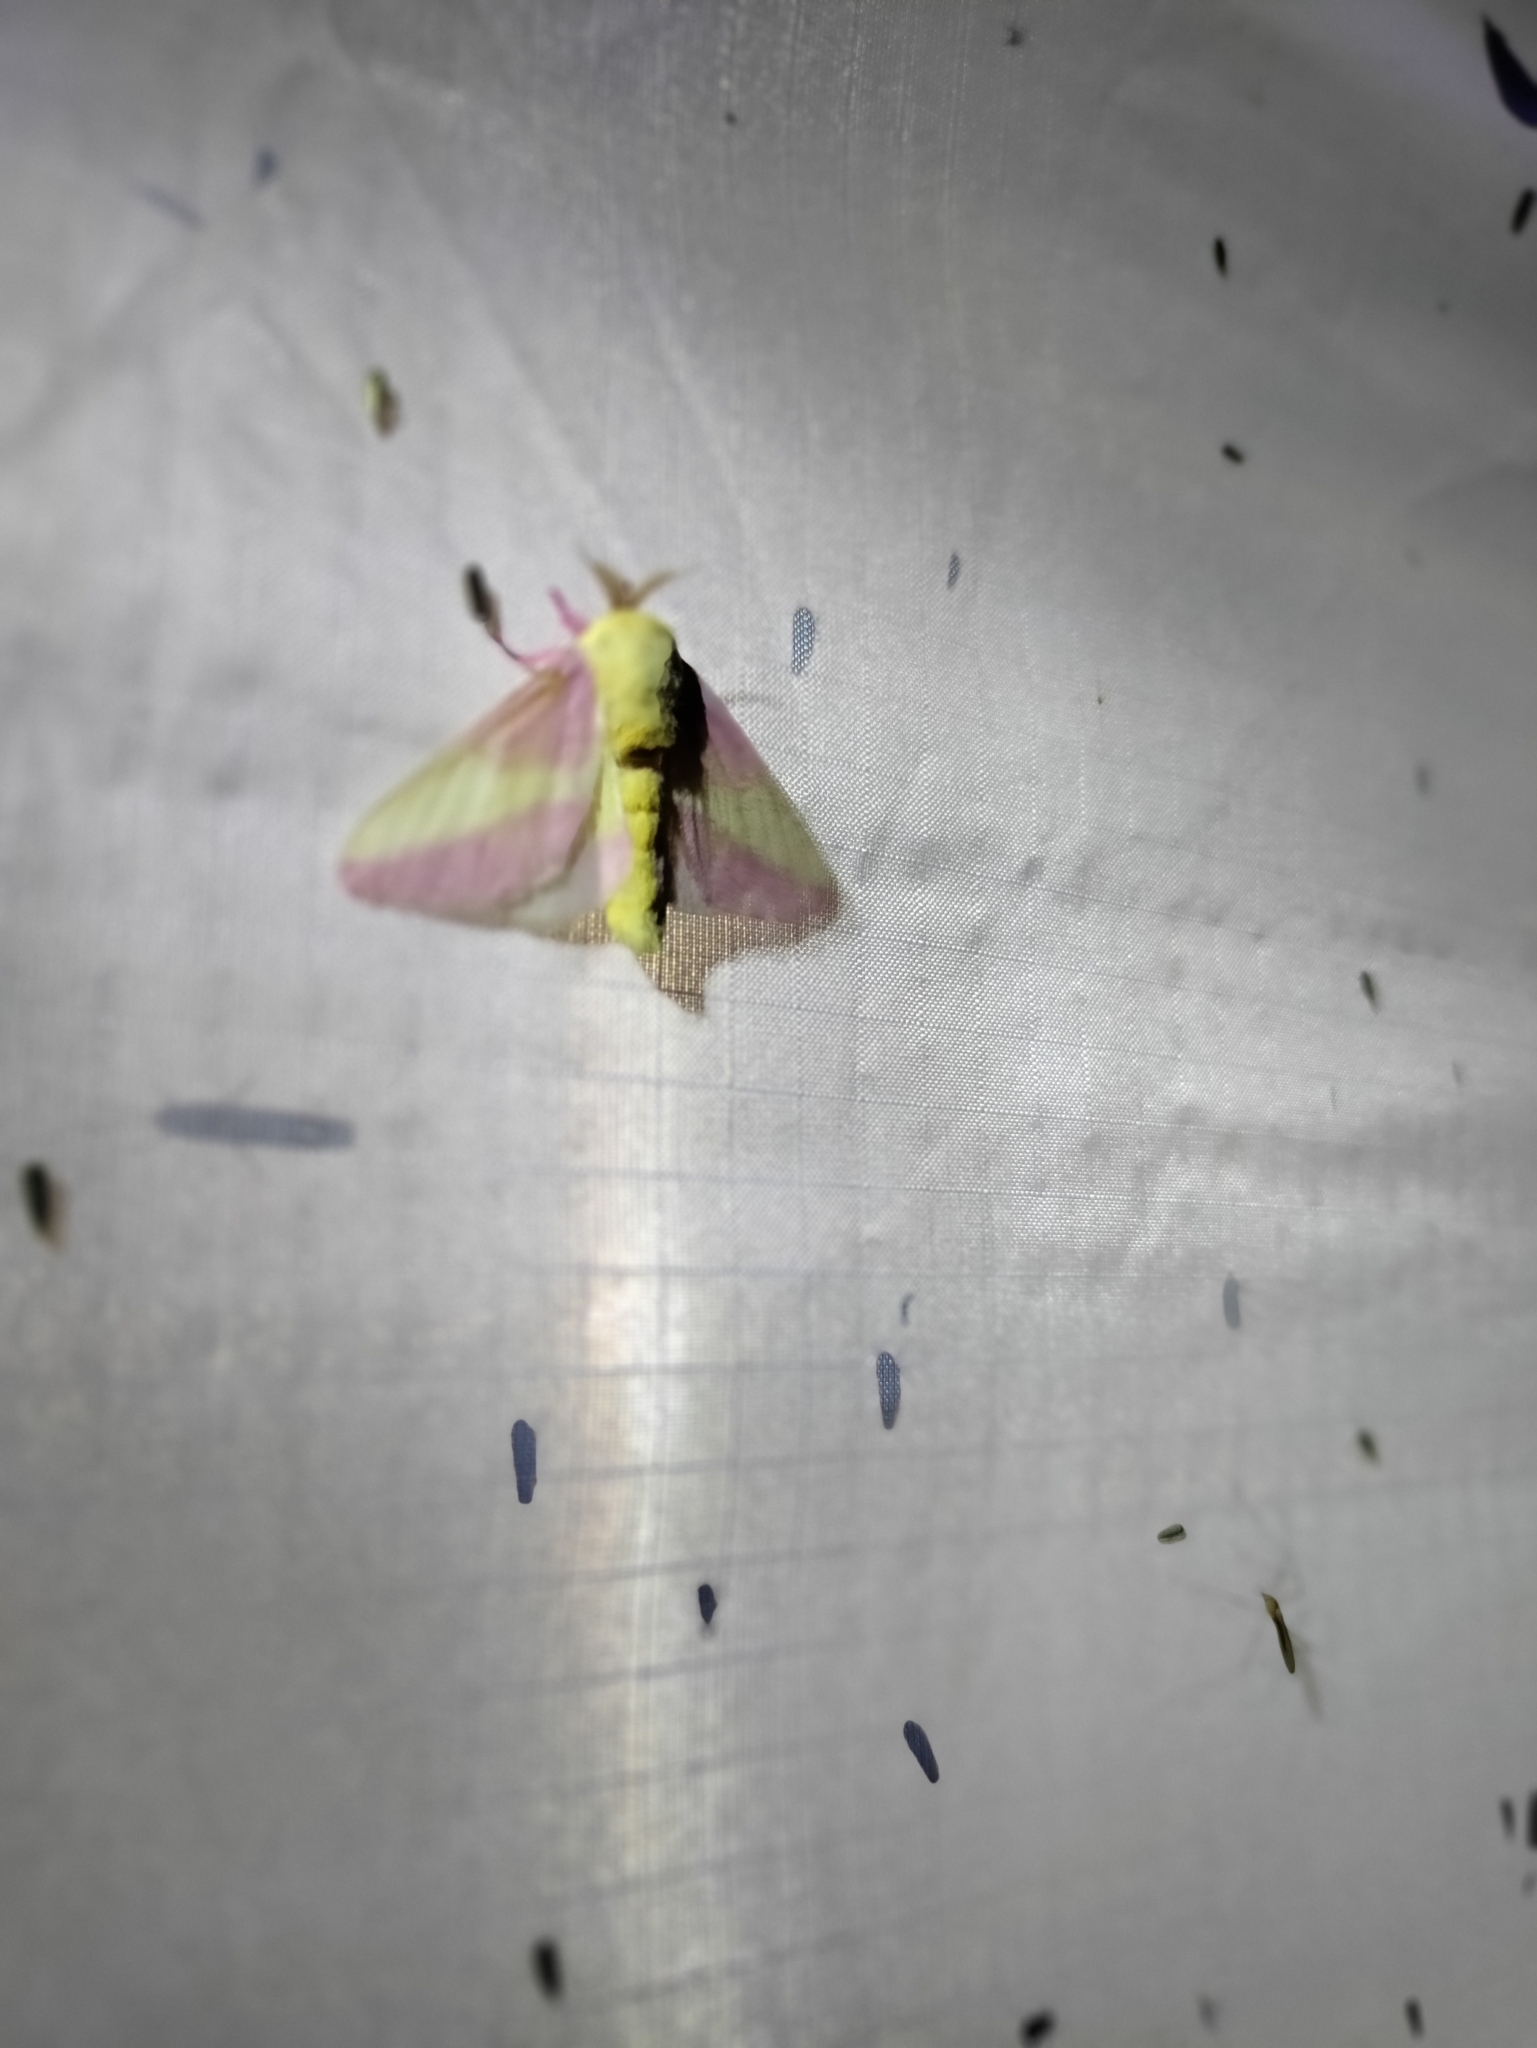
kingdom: Animalia
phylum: Arthropoda
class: Insecta
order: Lepidoptera
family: Saturniidae
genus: Dryocampa
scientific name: Dryocampa rubicunda
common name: Rosy maple moth
